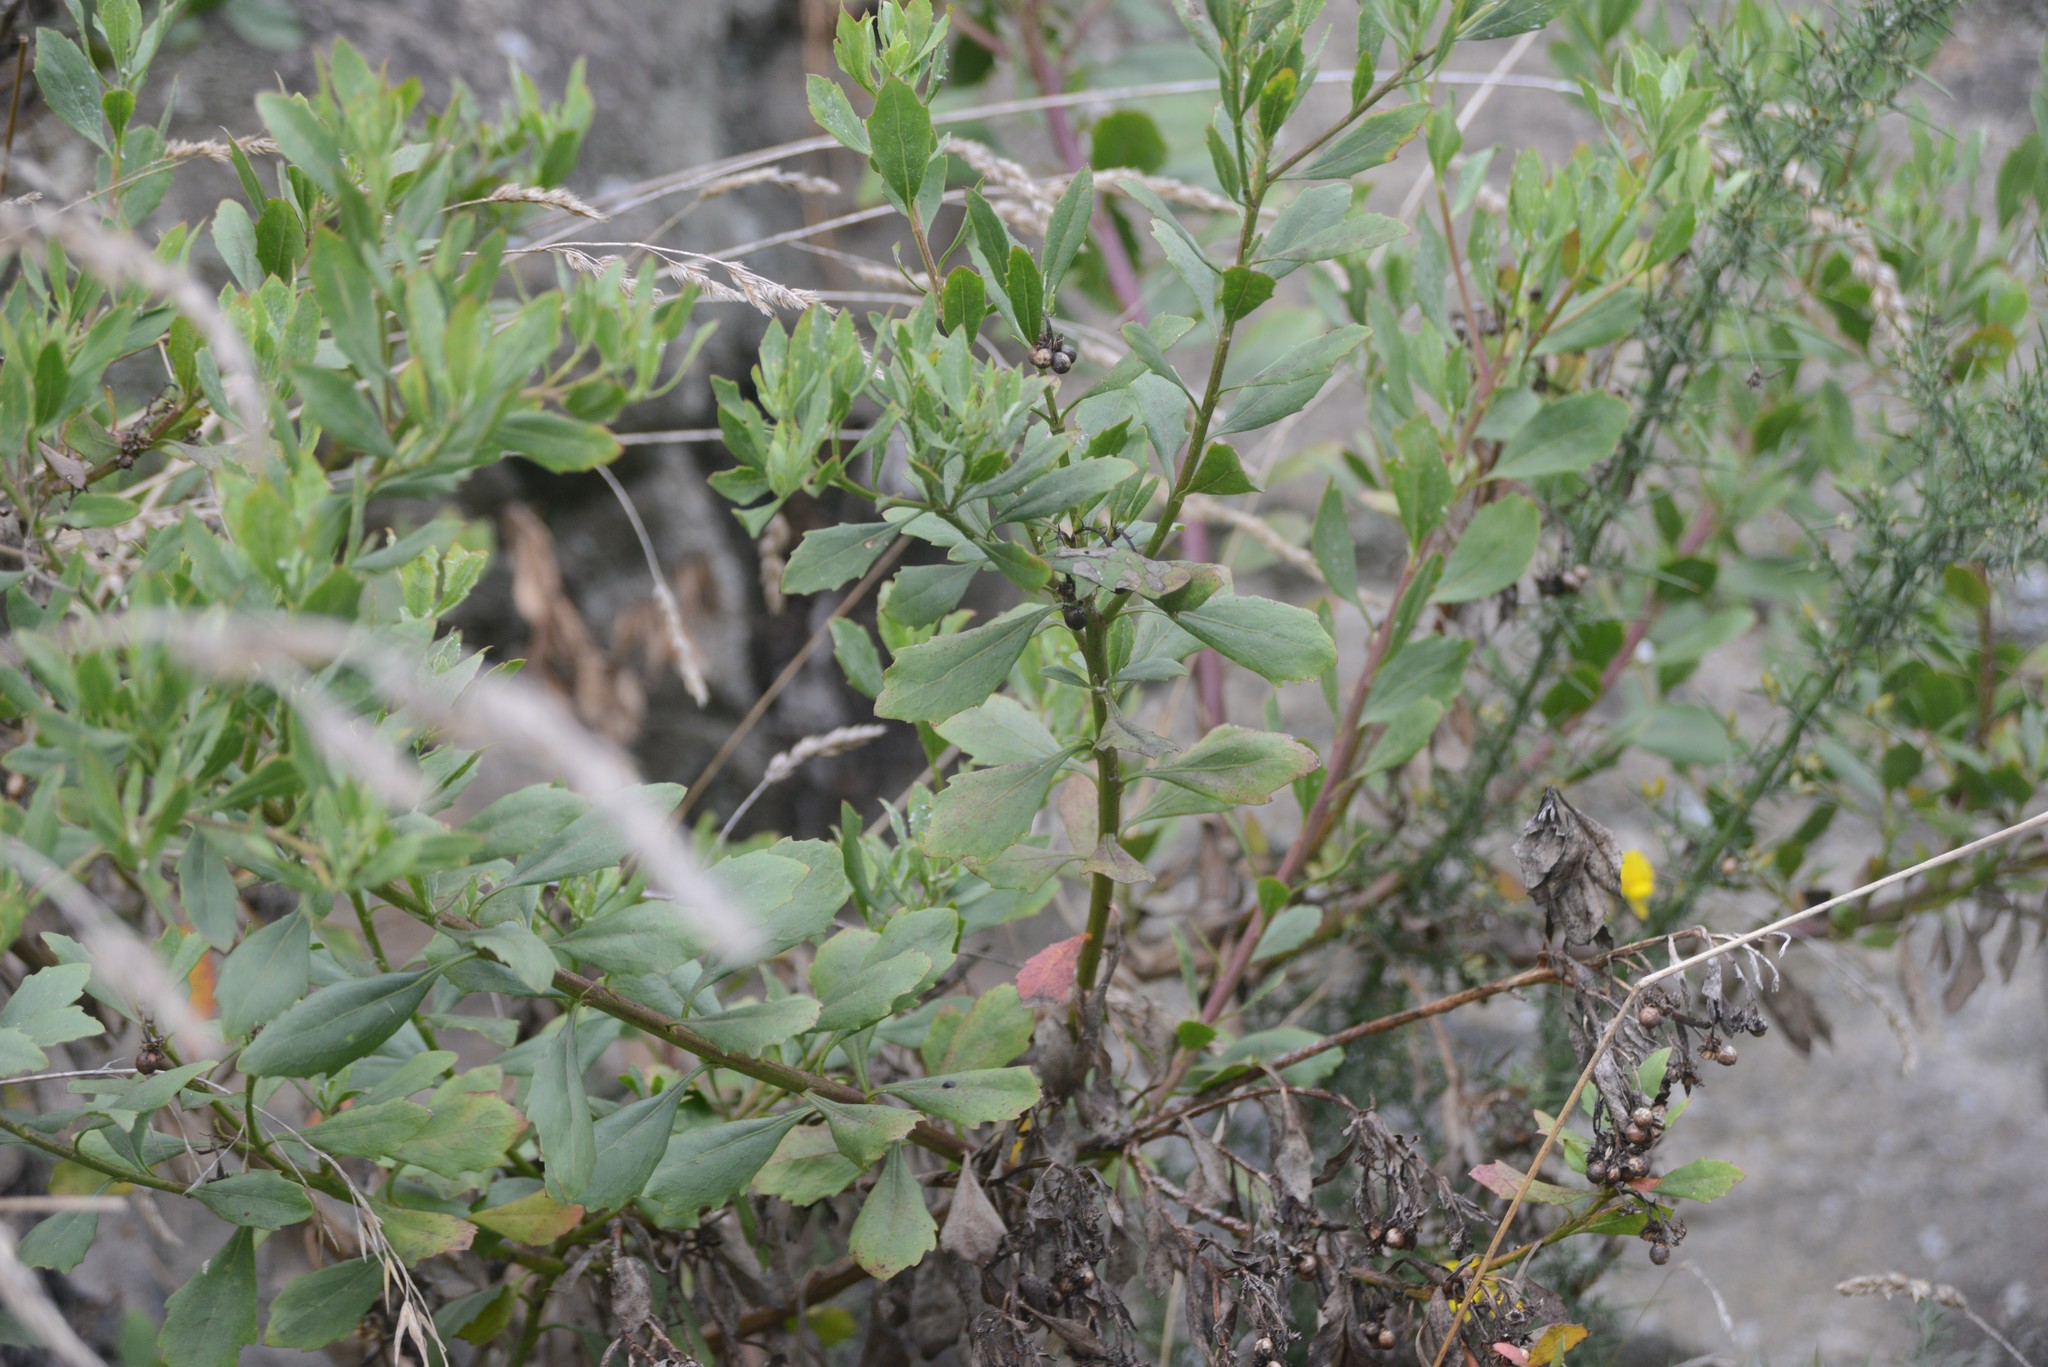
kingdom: Plantae
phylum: Tracheophyta
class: Magnoliopsida
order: Asterales
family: Asteraceae
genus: Osteospermum
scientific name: Osteospermum moniliferum
